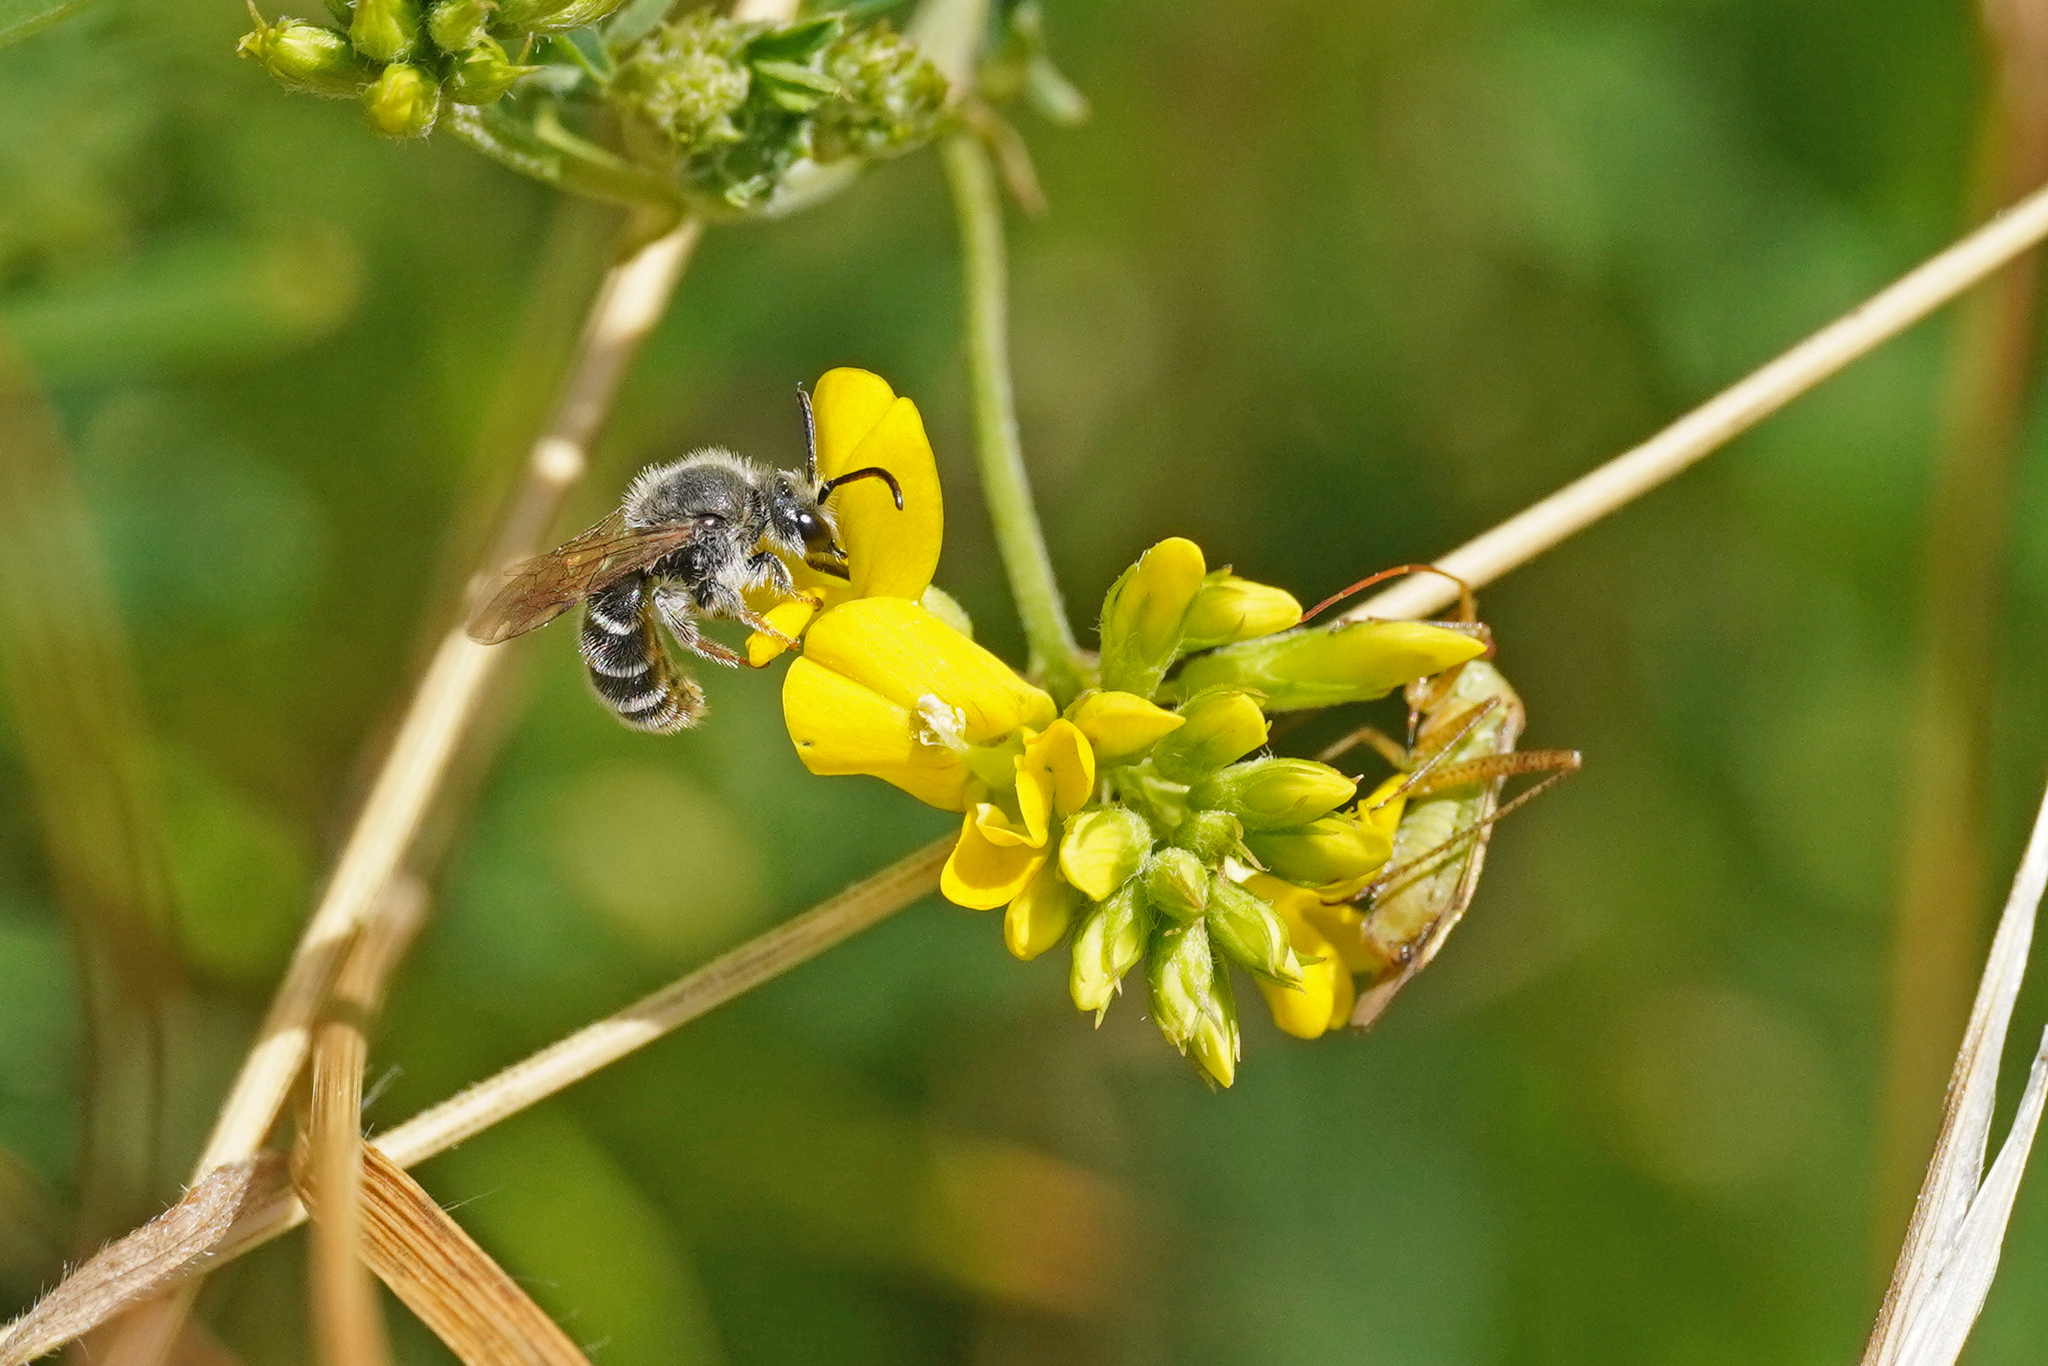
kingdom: Animalia
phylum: Arthropoda
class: Insecta
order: Hymenoptera
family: Halictidae
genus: Rophites
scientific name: Rophites canus
